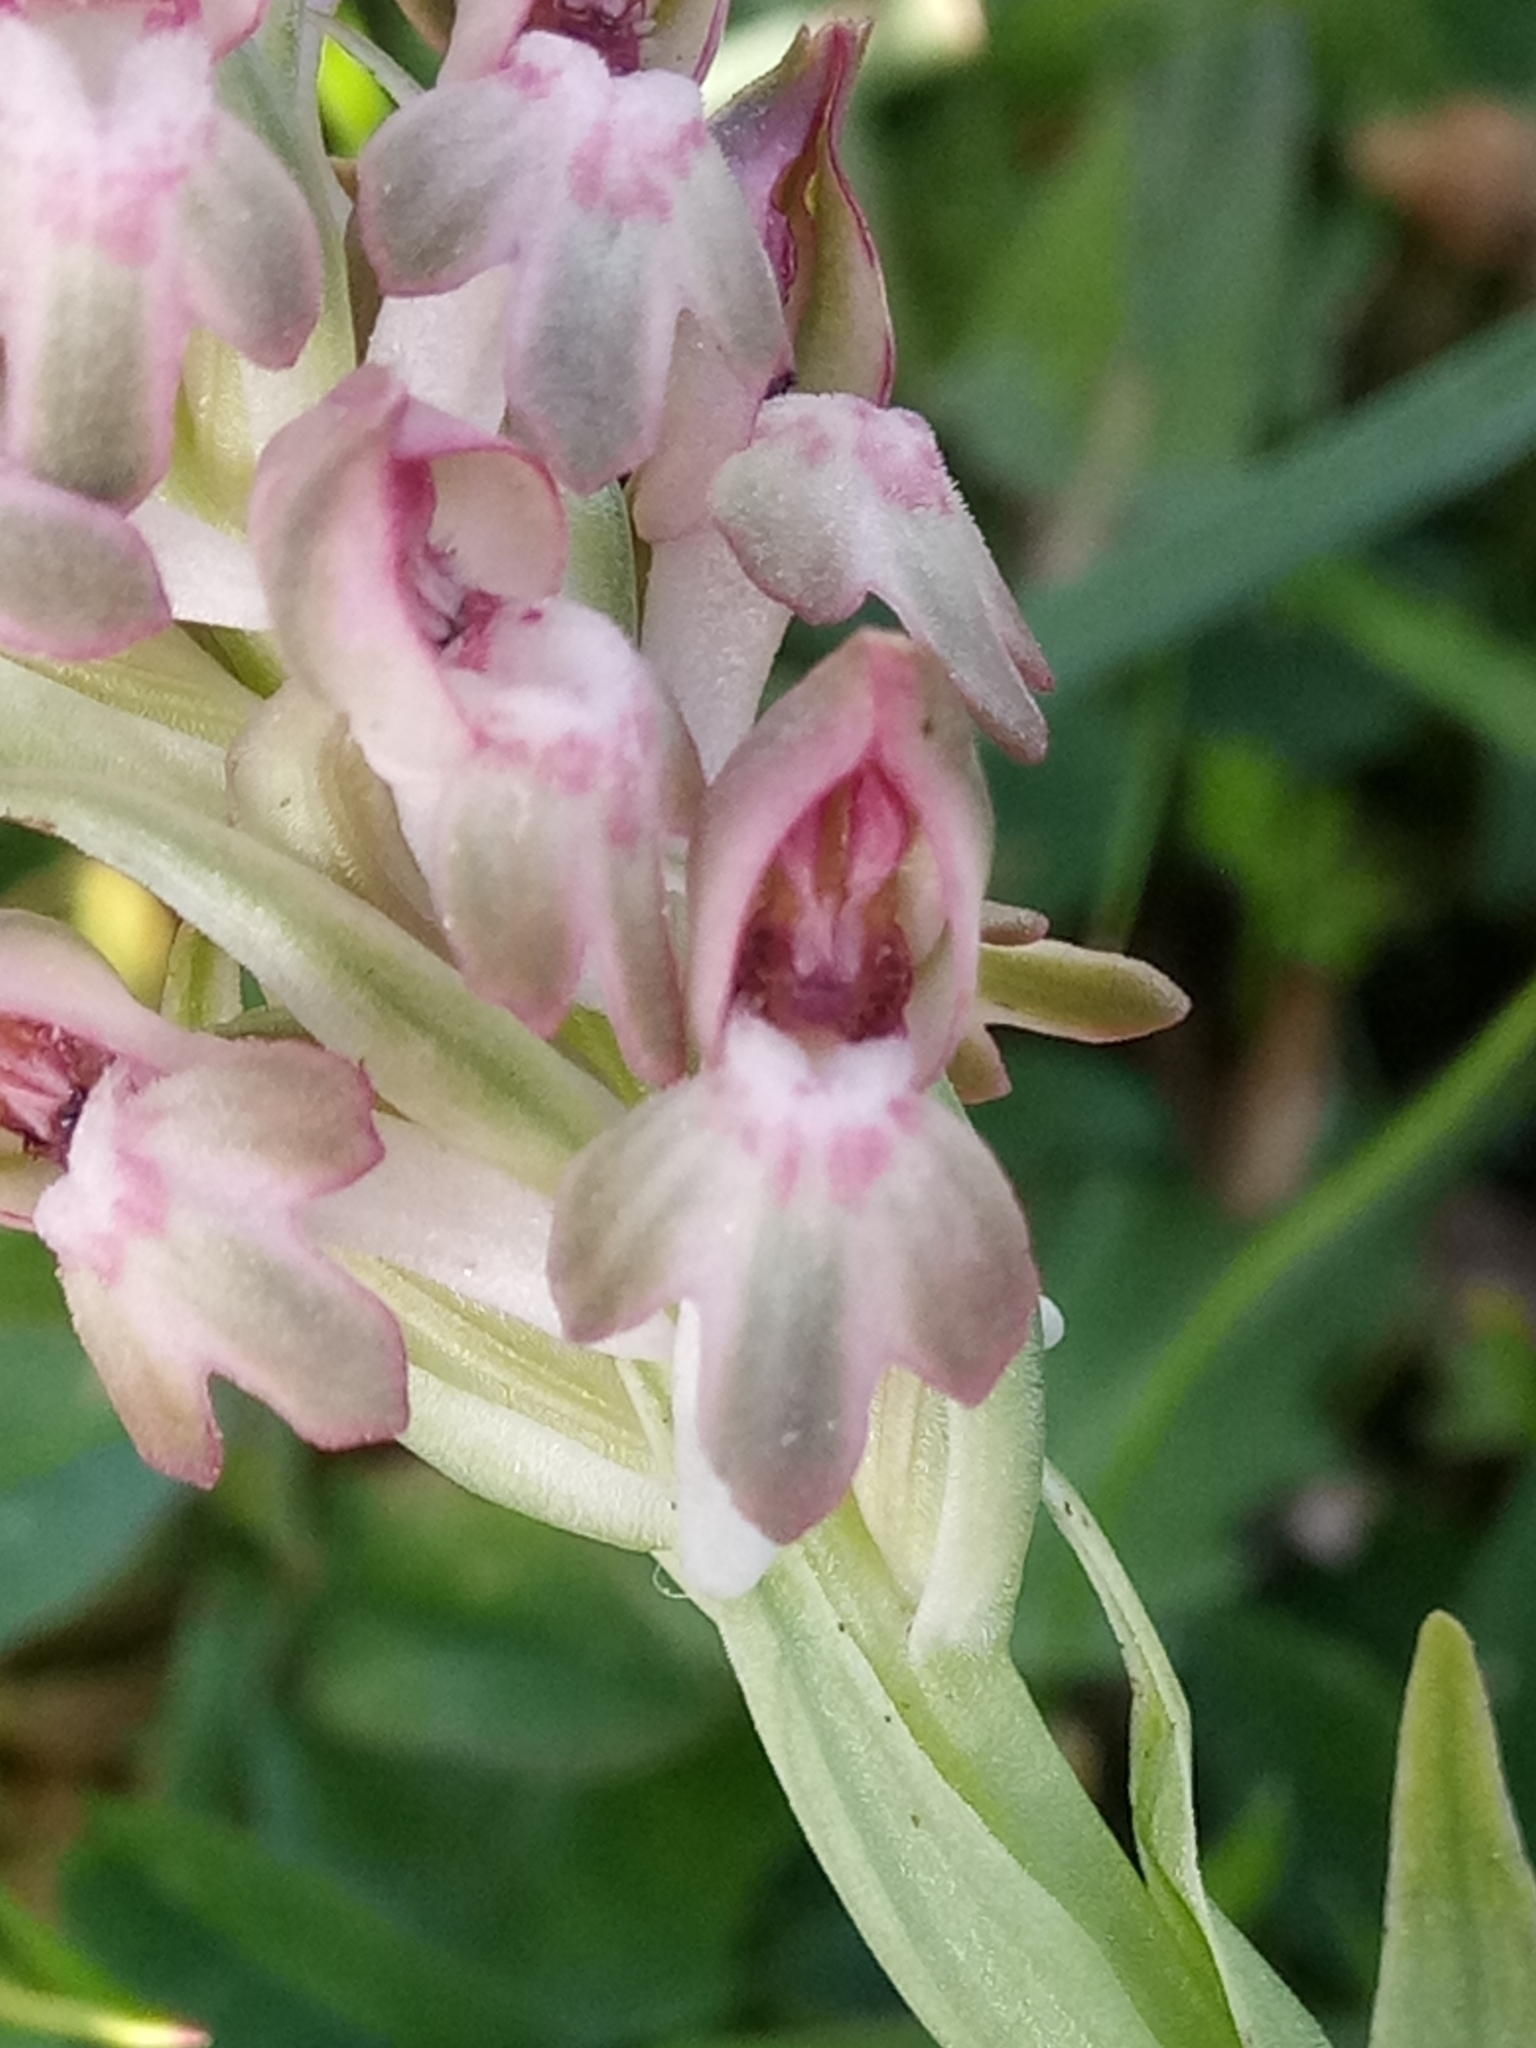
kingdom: Plantae
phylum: Tracheophyta
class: Liliopsida
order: Asparagales
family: Orchidaceae
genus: Anacamptis
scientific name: Anacamptis coriophora
